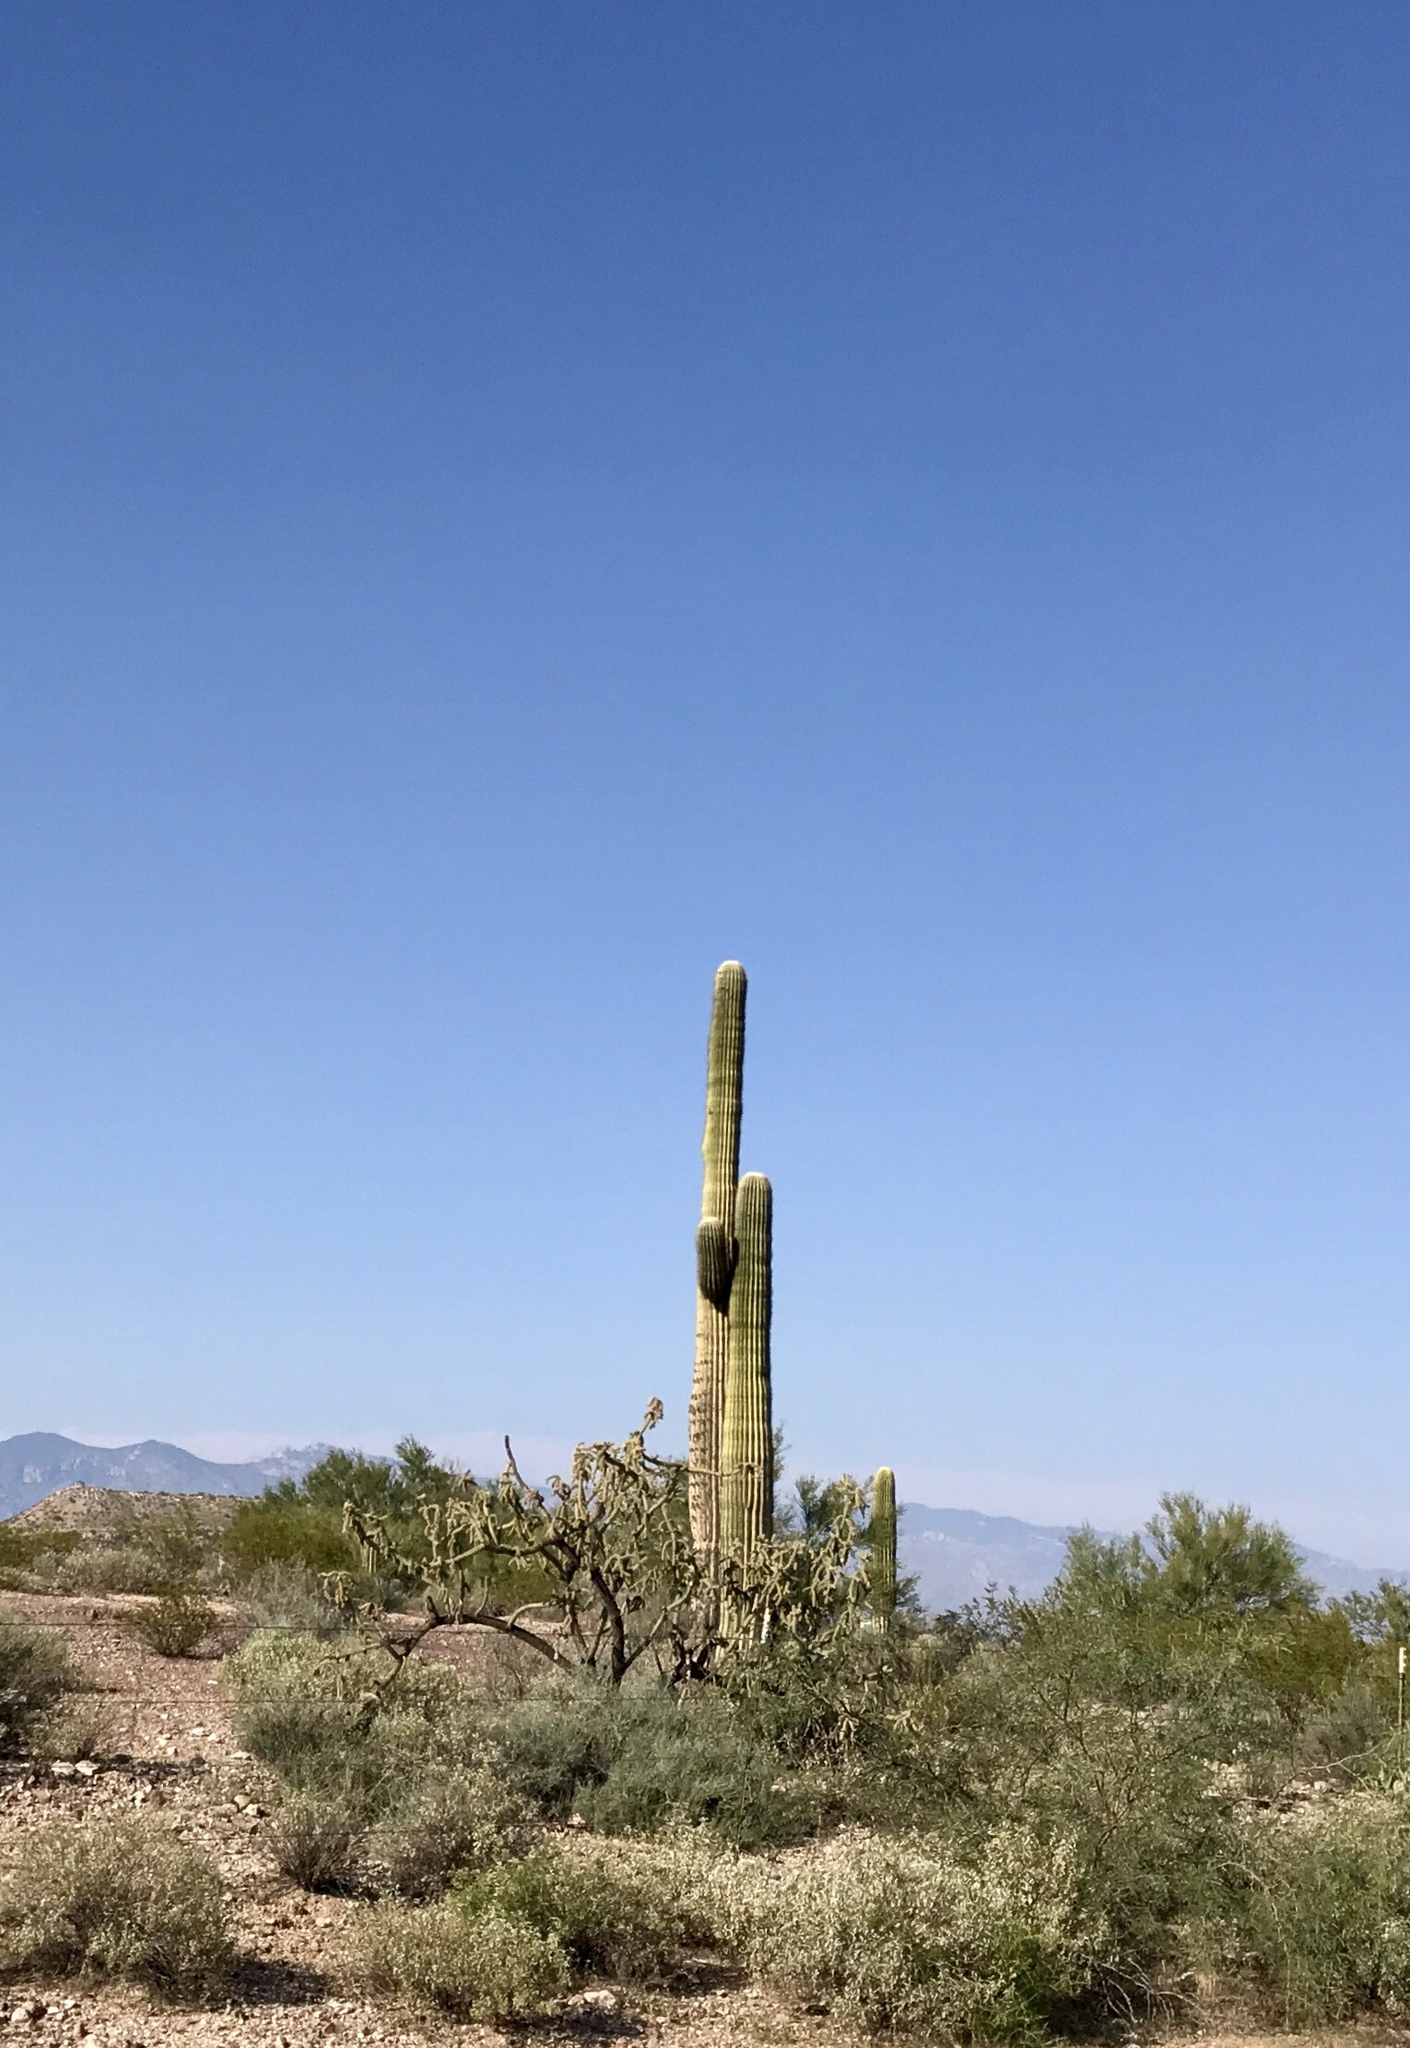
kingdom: Plantae
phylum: Tracheophyta
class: Magnoliopsida
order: Caryophyllales
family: Cactaceae
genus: Carnegiea
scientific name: Carnegiea gigantea
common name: Saguaro
